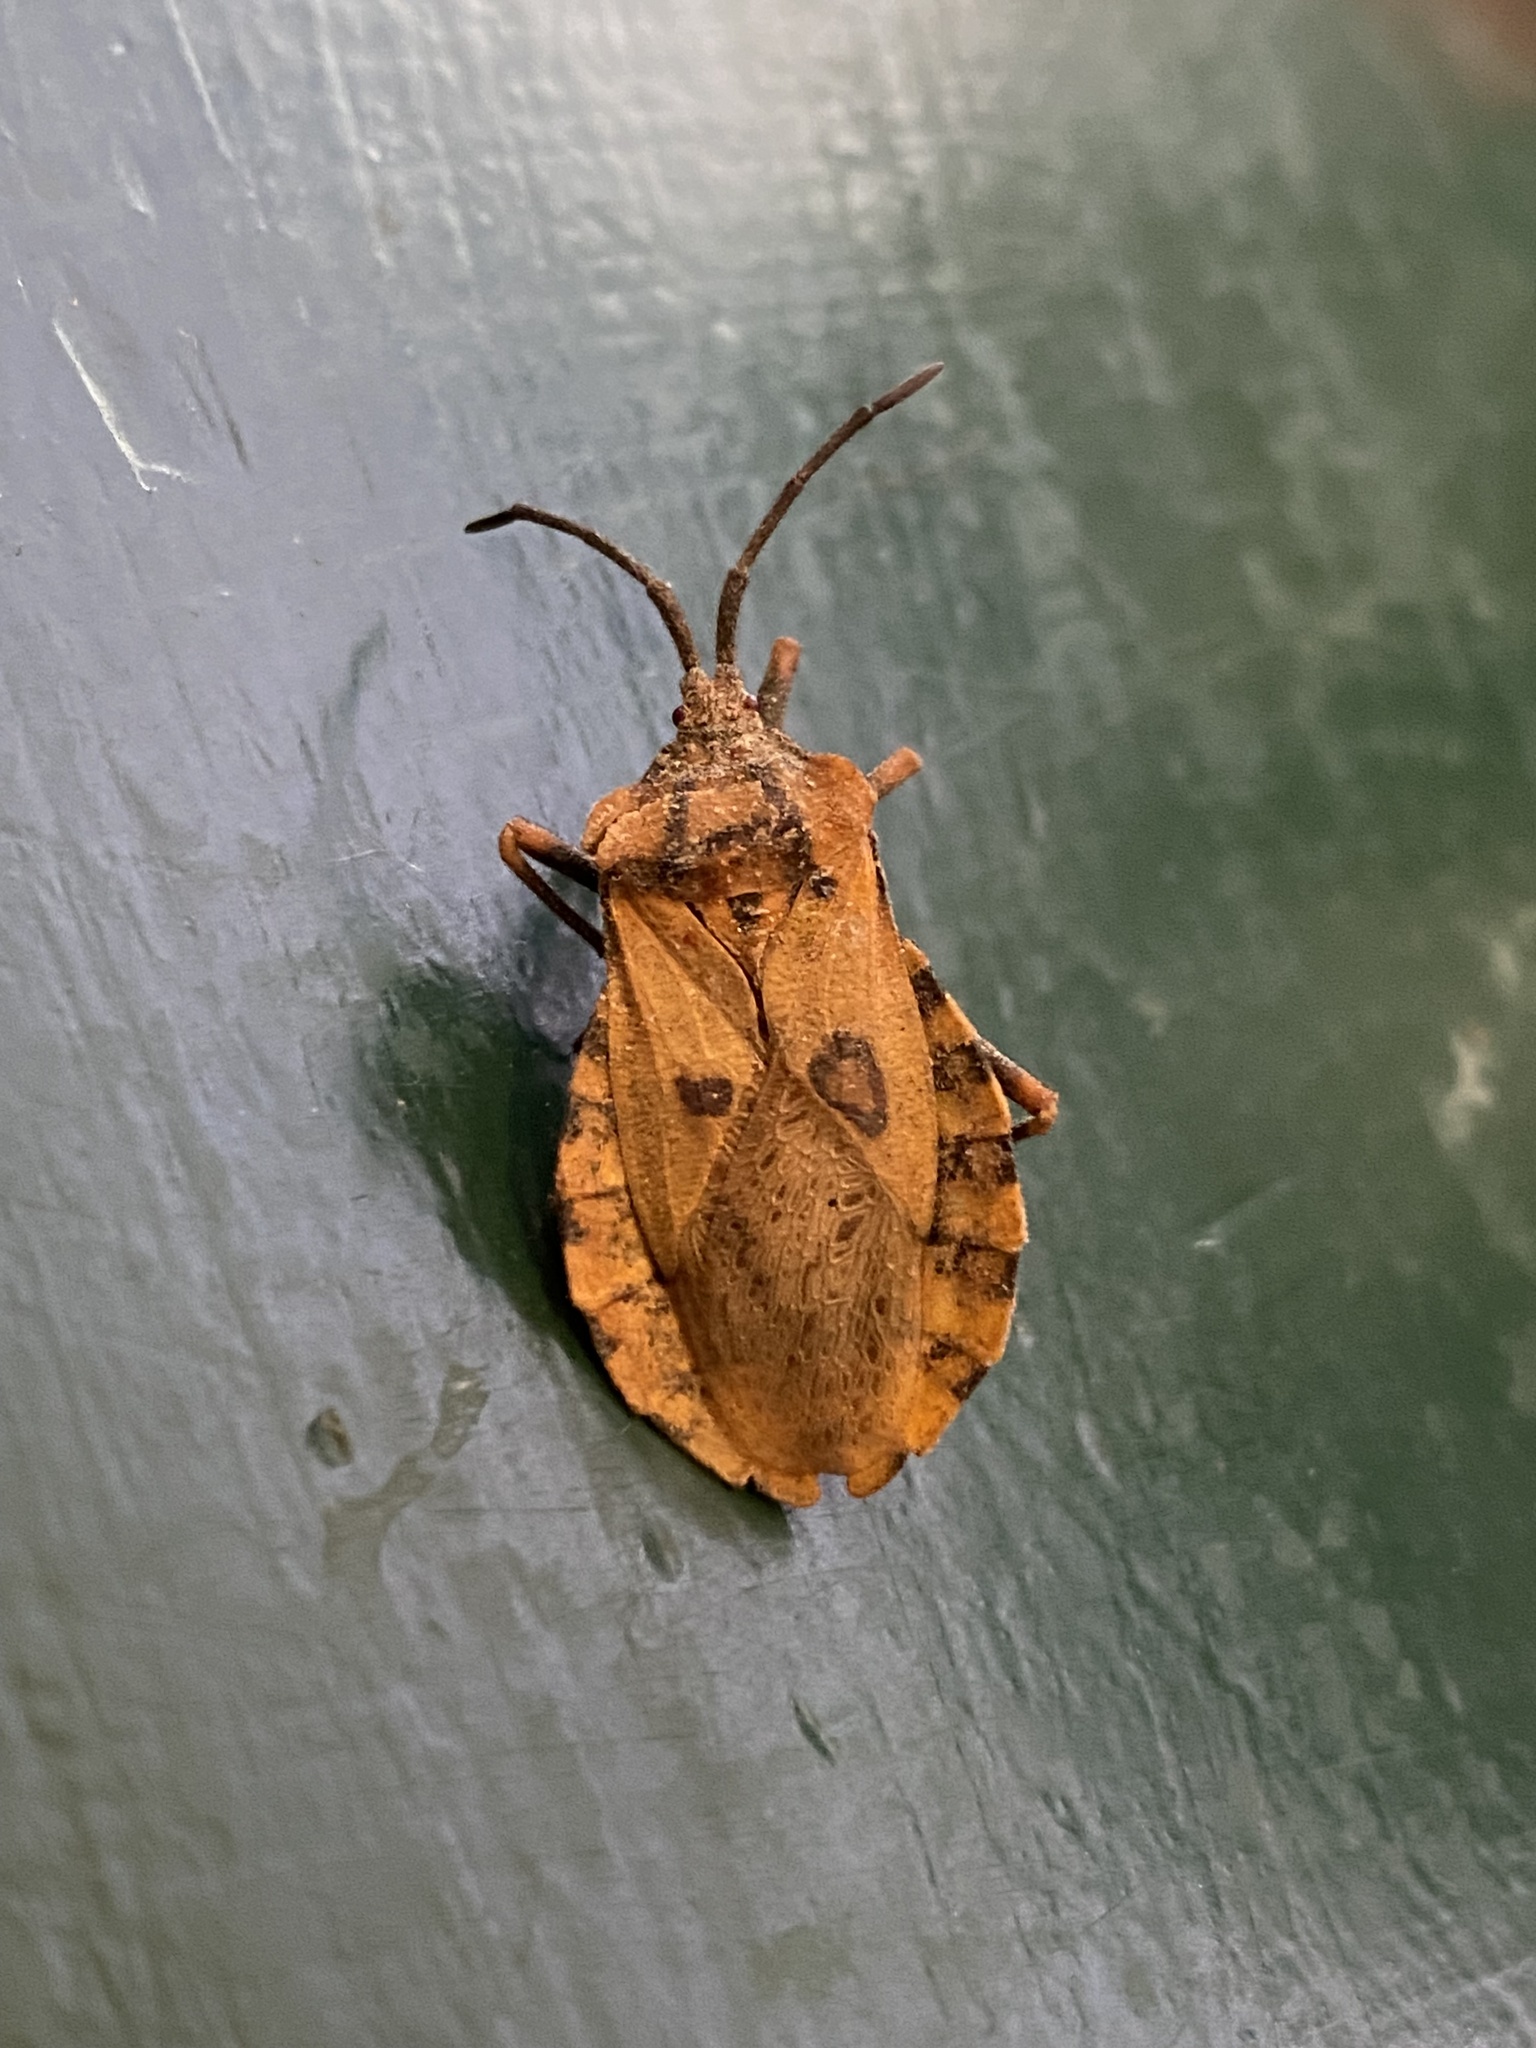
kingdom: Animalia
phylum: Arthropoda
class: Insecta
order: Hemiptera
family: Coreidae
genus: Spartocera
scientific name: Spartocera fusca
